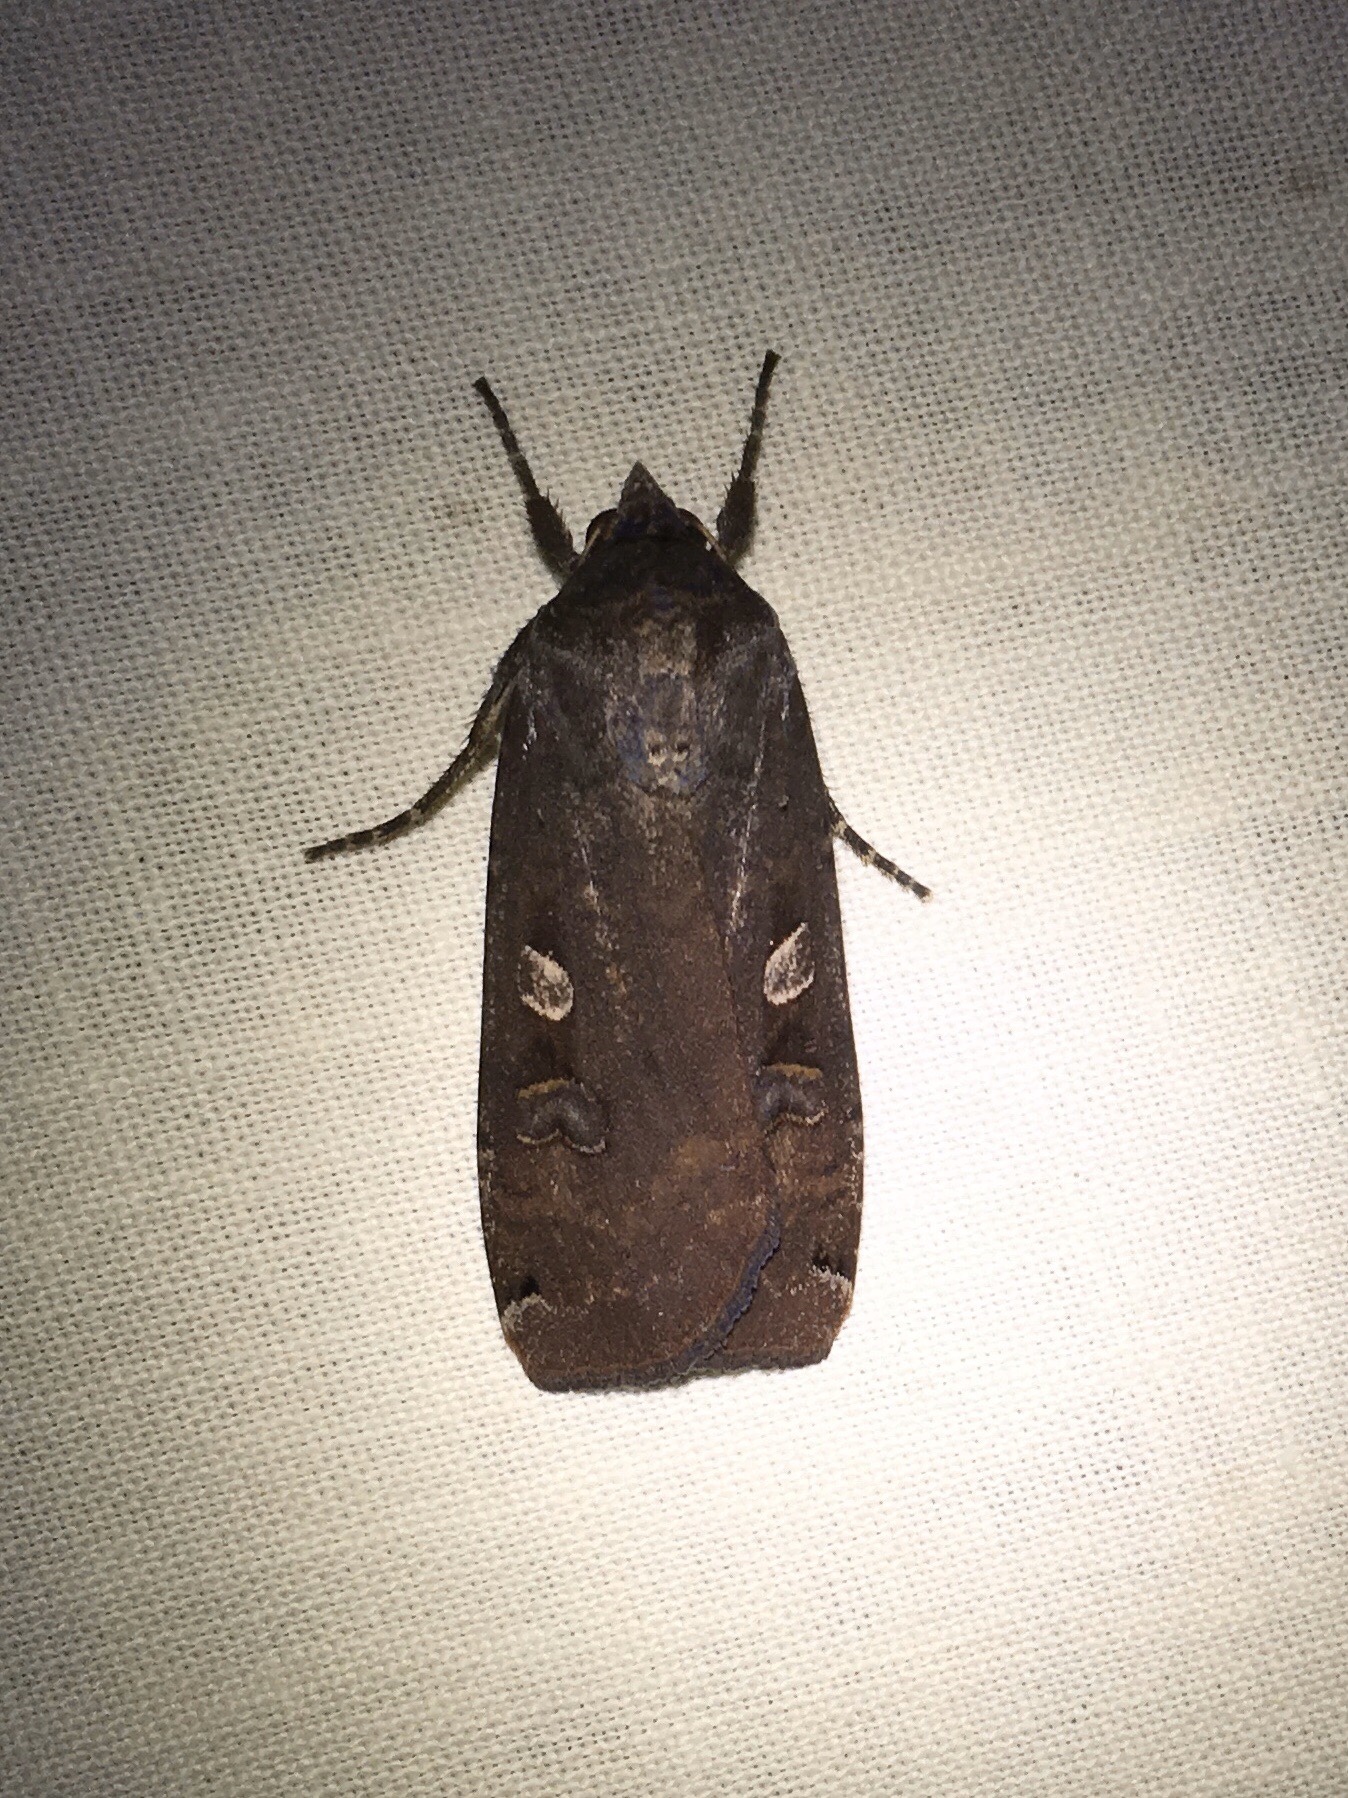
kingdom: Animalia
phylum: Arthropoda
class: Insecta
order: Lepidoptera
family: Noctuidae
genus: Noctua
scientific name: Noctua pronuba
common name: Large yellow underwing
